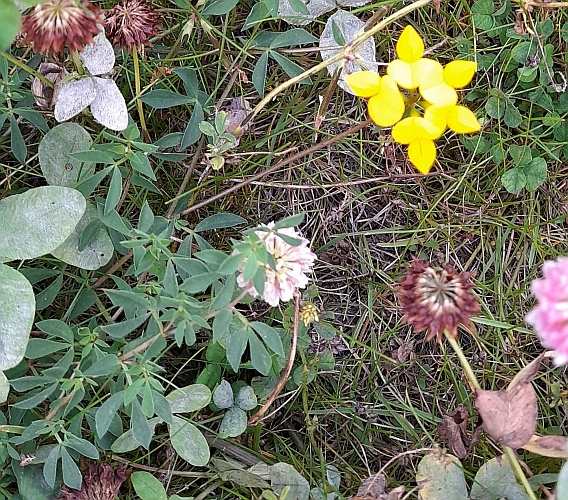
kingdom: Plantae
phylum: Tracheophyta
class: Magnoliopsida
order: Fabales
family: Fabaceae
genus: Lotus
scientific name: Lotus corniculatus
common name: Common bird's-foot-trefoil
